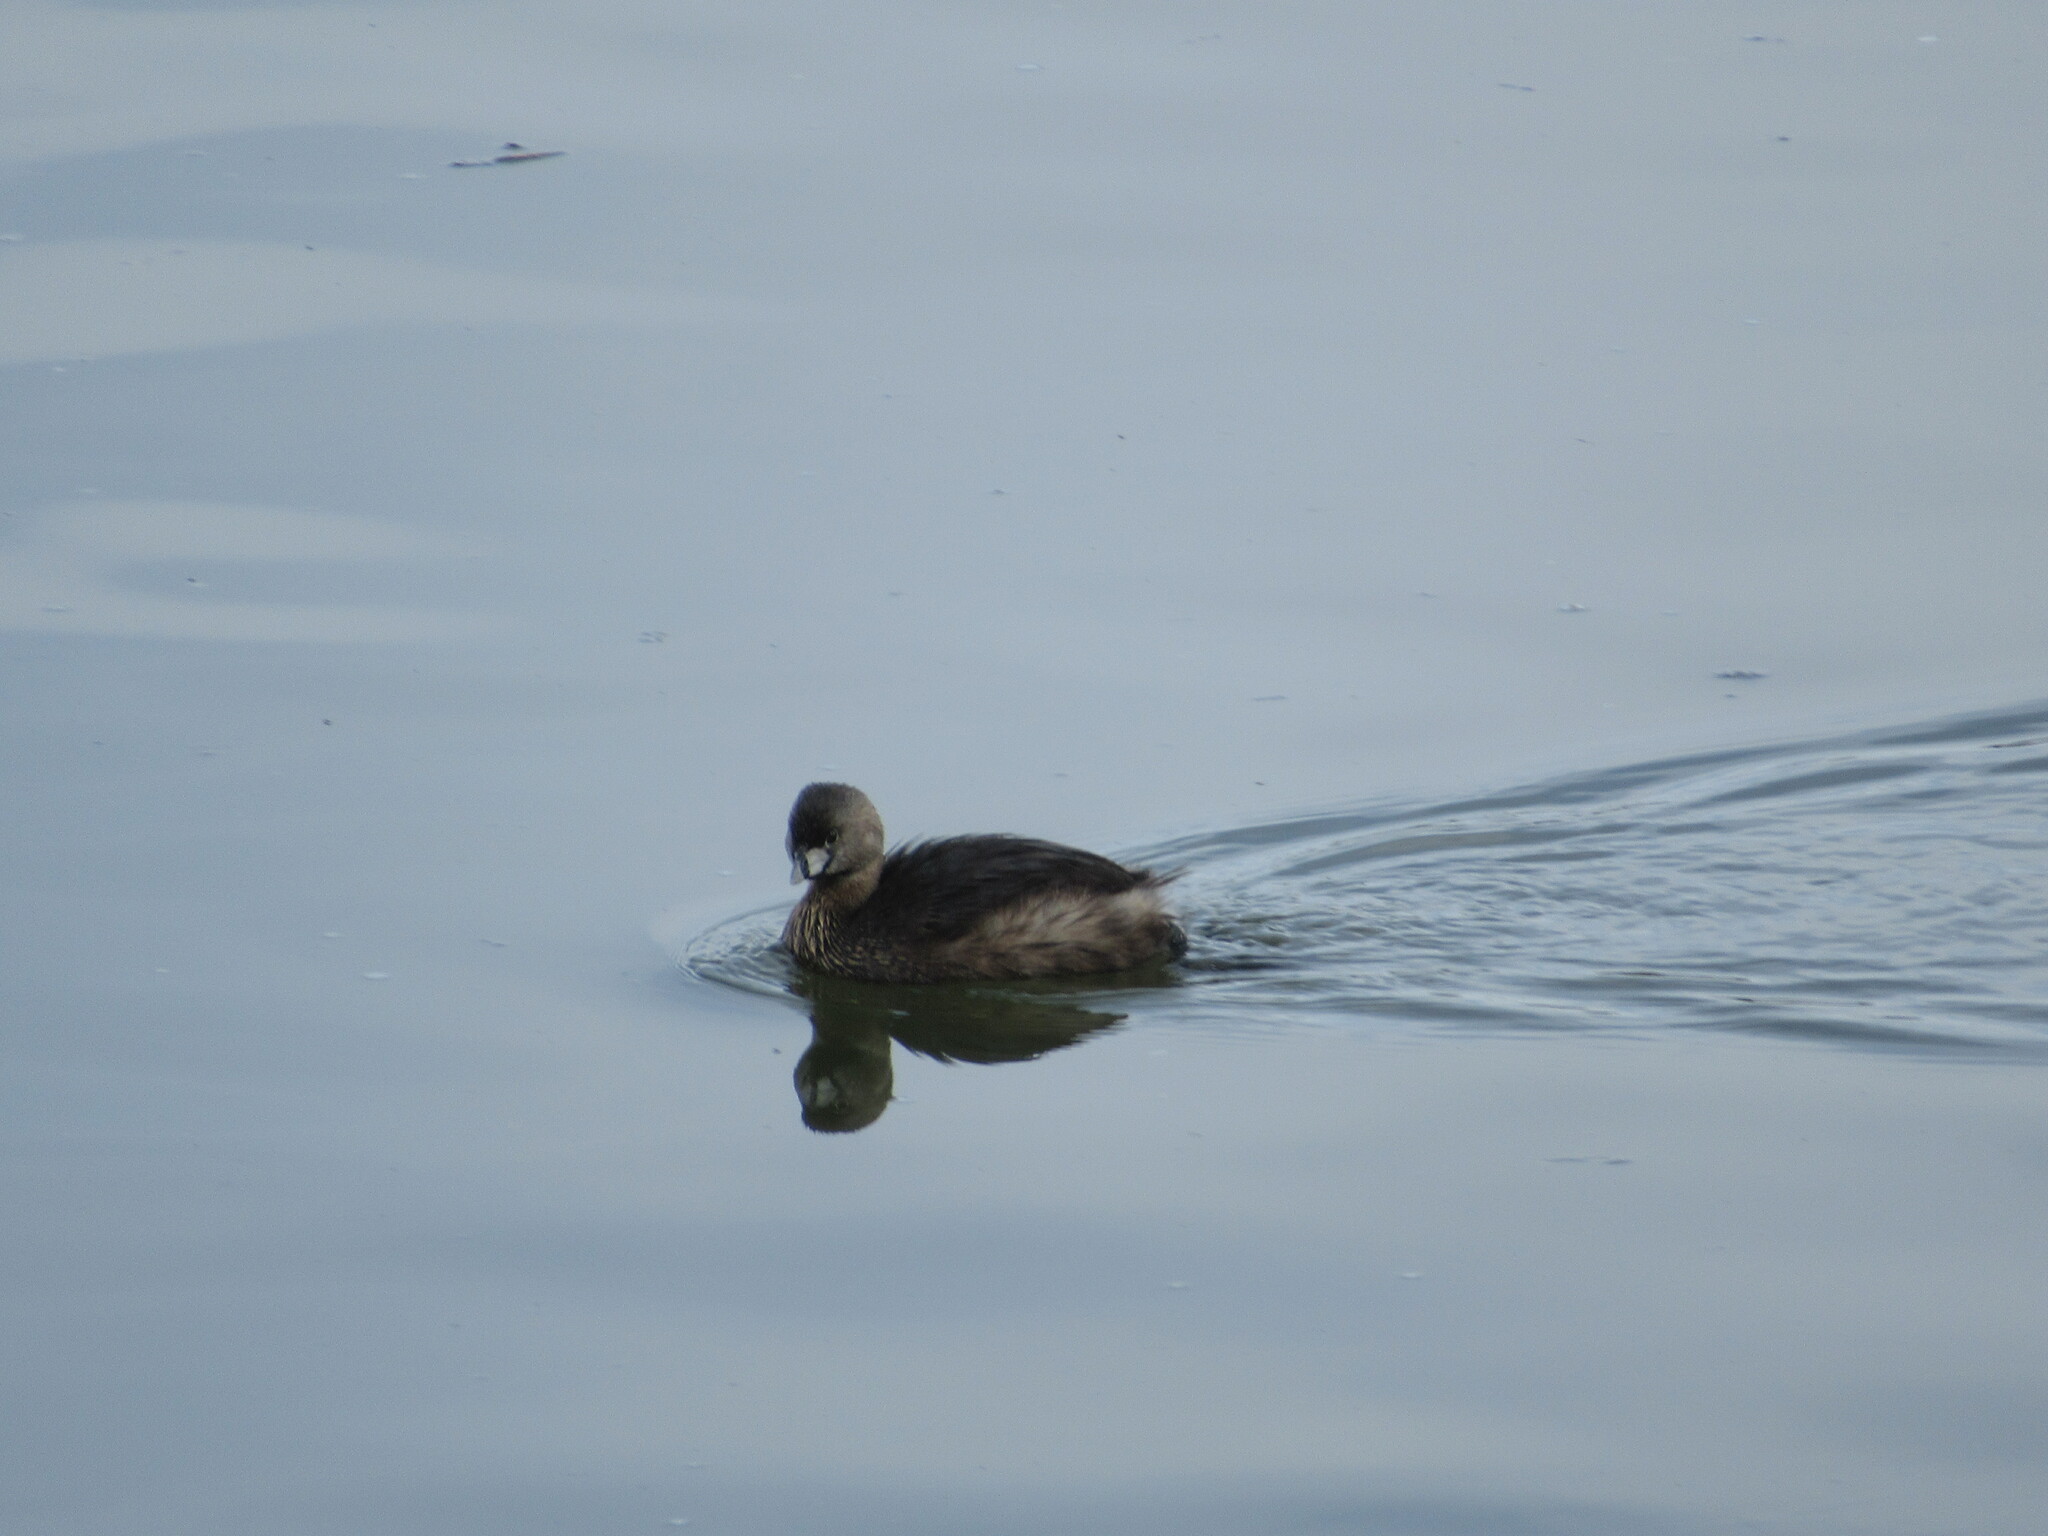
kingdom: Animalia
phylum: Chordata
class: Aves
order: Podicipediformes
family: Podicipedidae
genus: Podilymbus
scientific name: Podilymbus podiceps
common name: Pied-billed grebe
